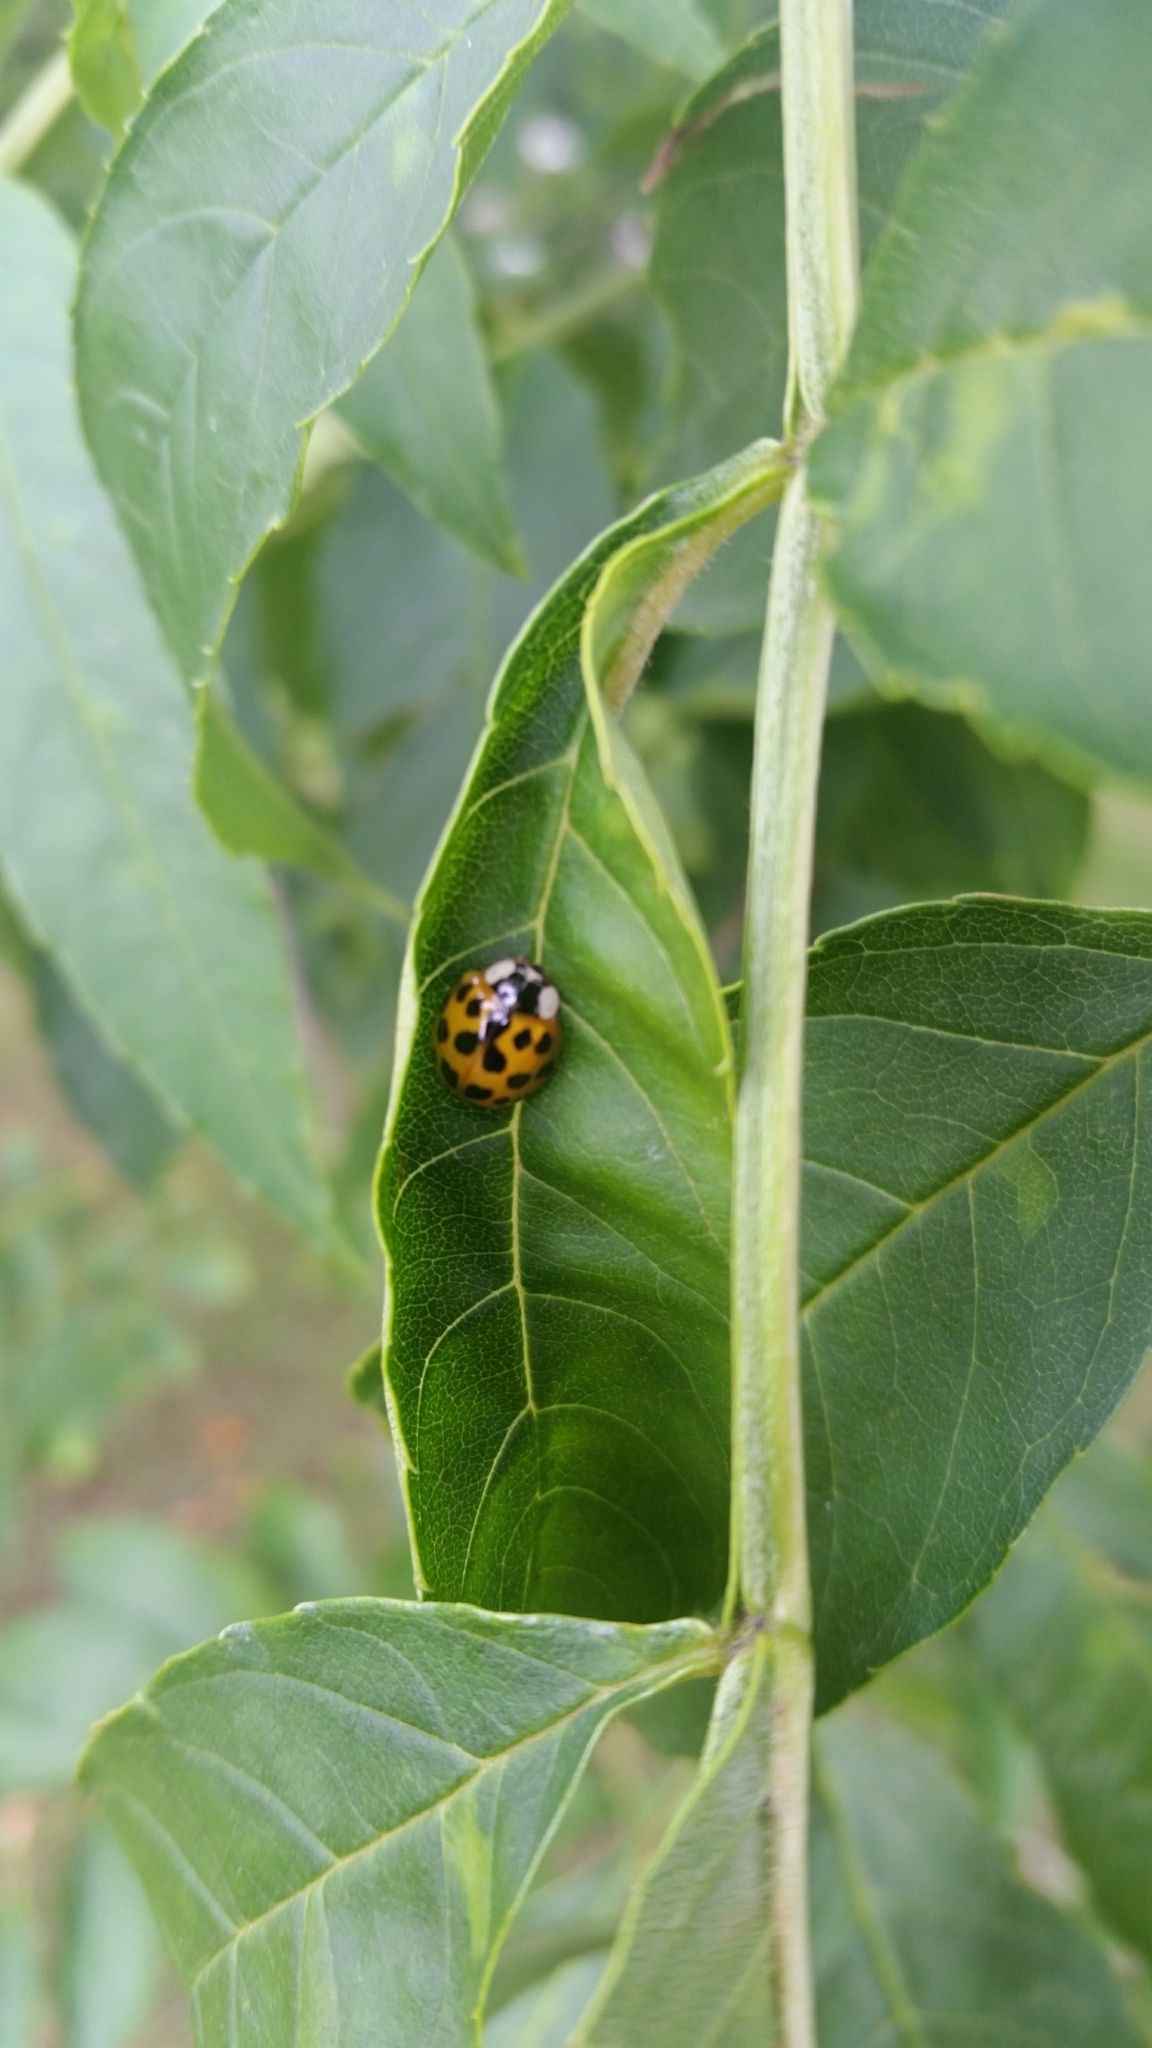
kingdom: Animalia
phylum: Arthropoda
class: Insecta
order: Coleoptera
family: Coccinellidae
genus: Harmonia
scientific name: Harmonia axyridis
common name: Harlequin ladybird
